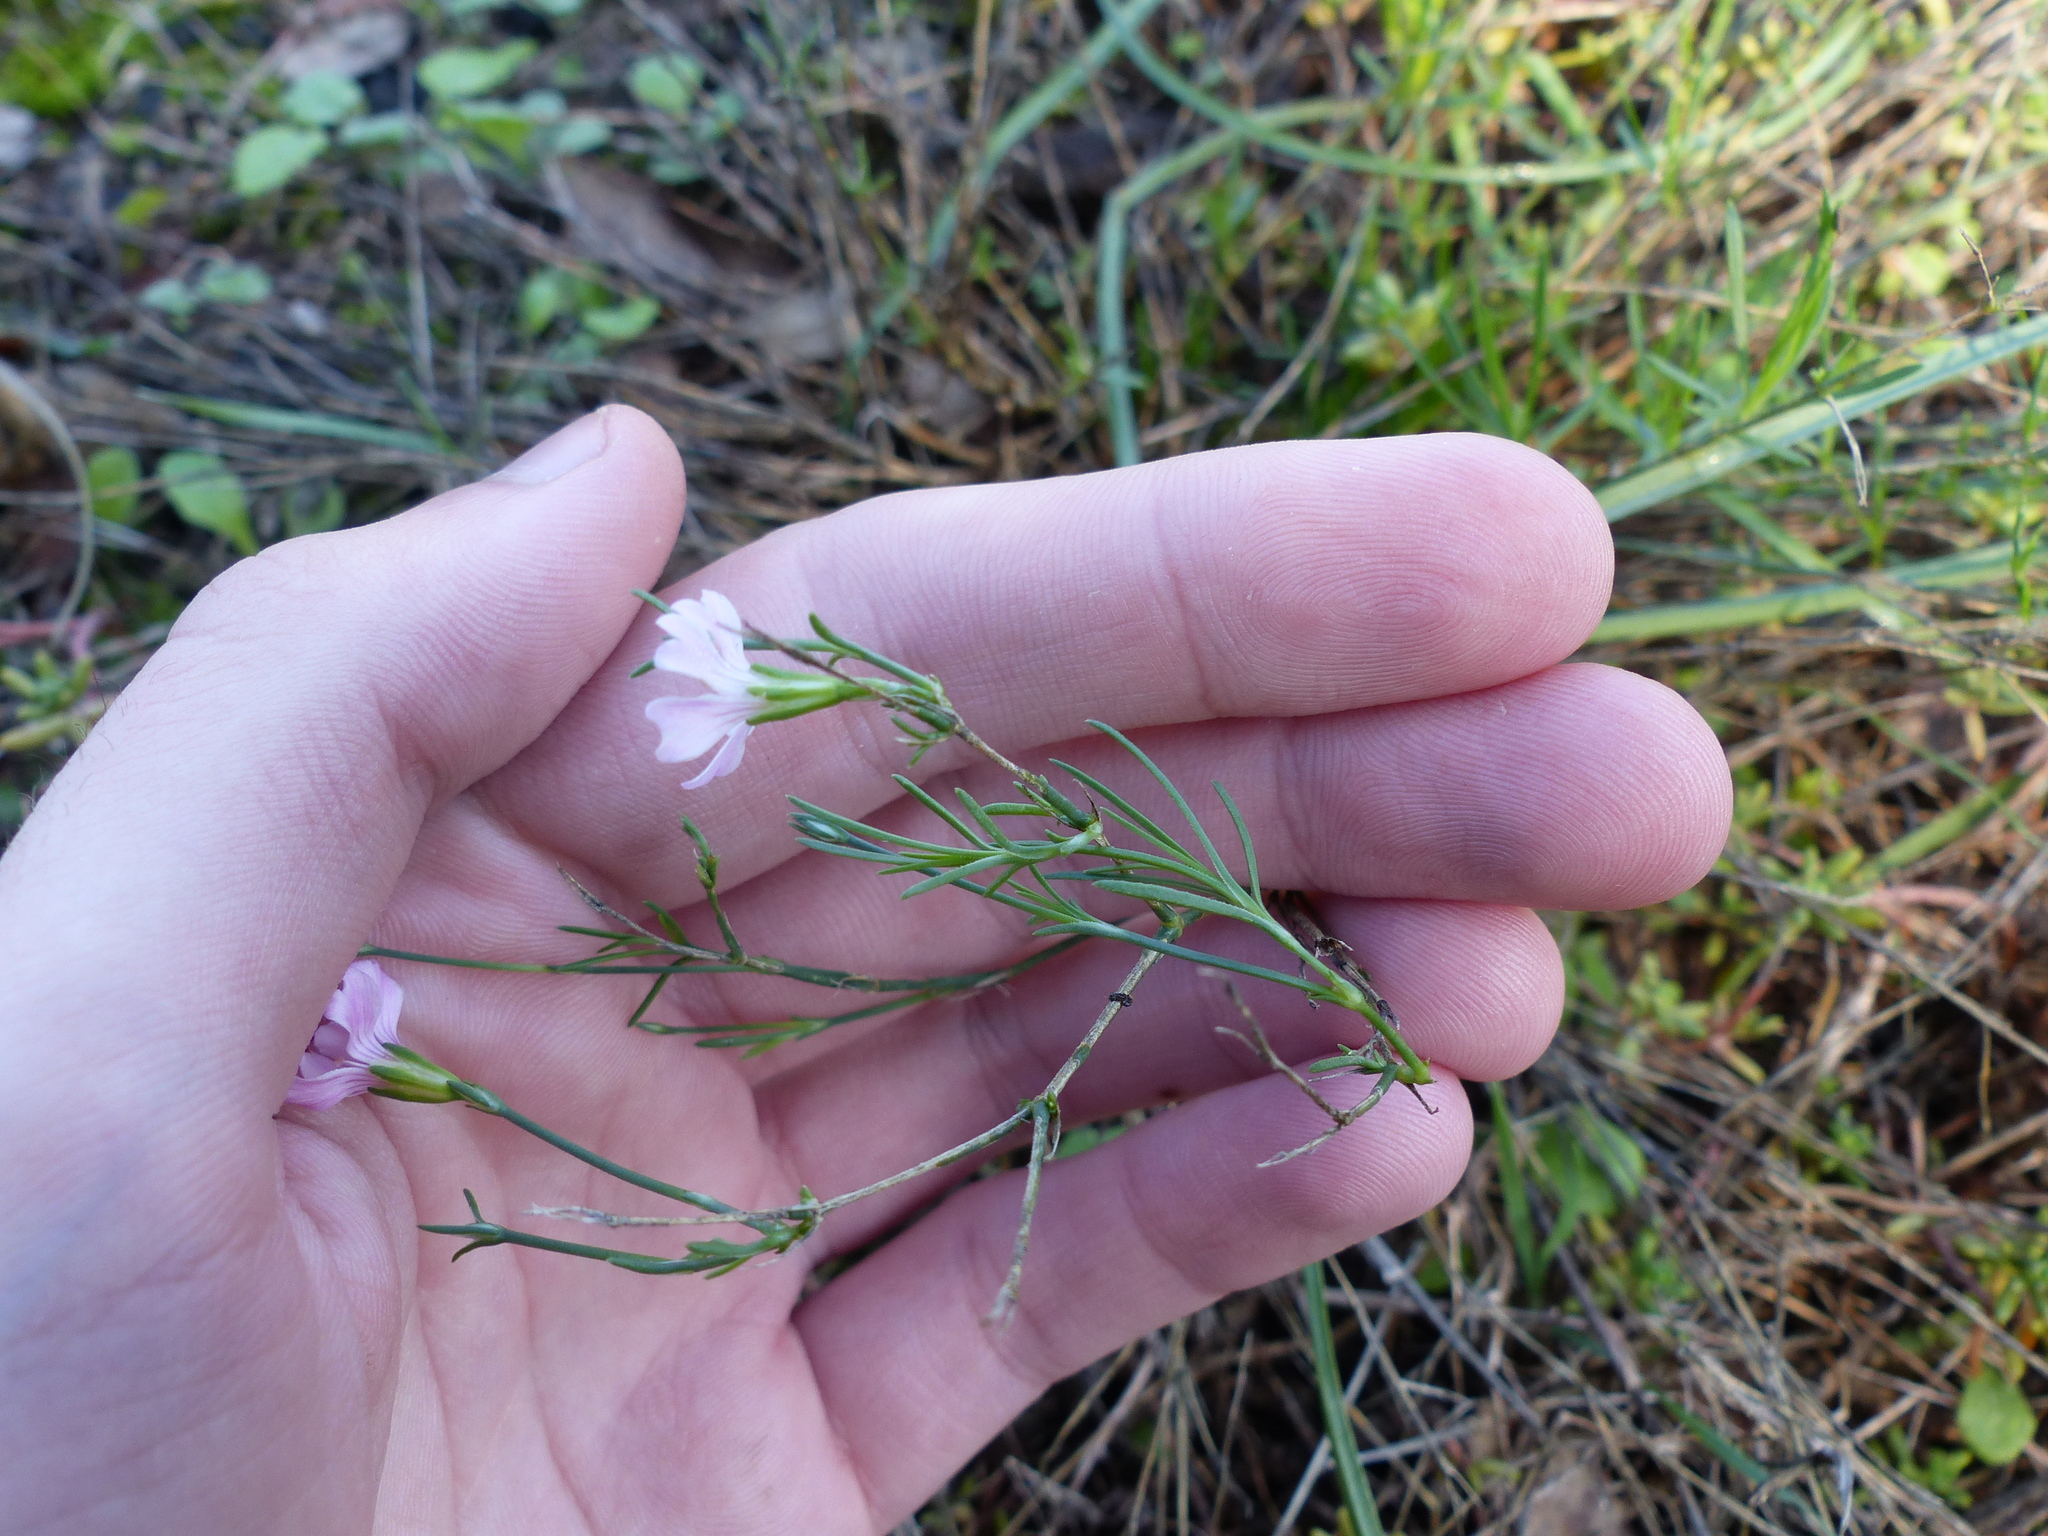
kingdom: Plantae
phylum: Tracheophyta
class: Magnoliopsida
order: Caryophyllales
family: Caryophyllaceae
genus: Psammophiliella
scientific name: Psammophiliella muralis
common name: Cushion baby's-breath
